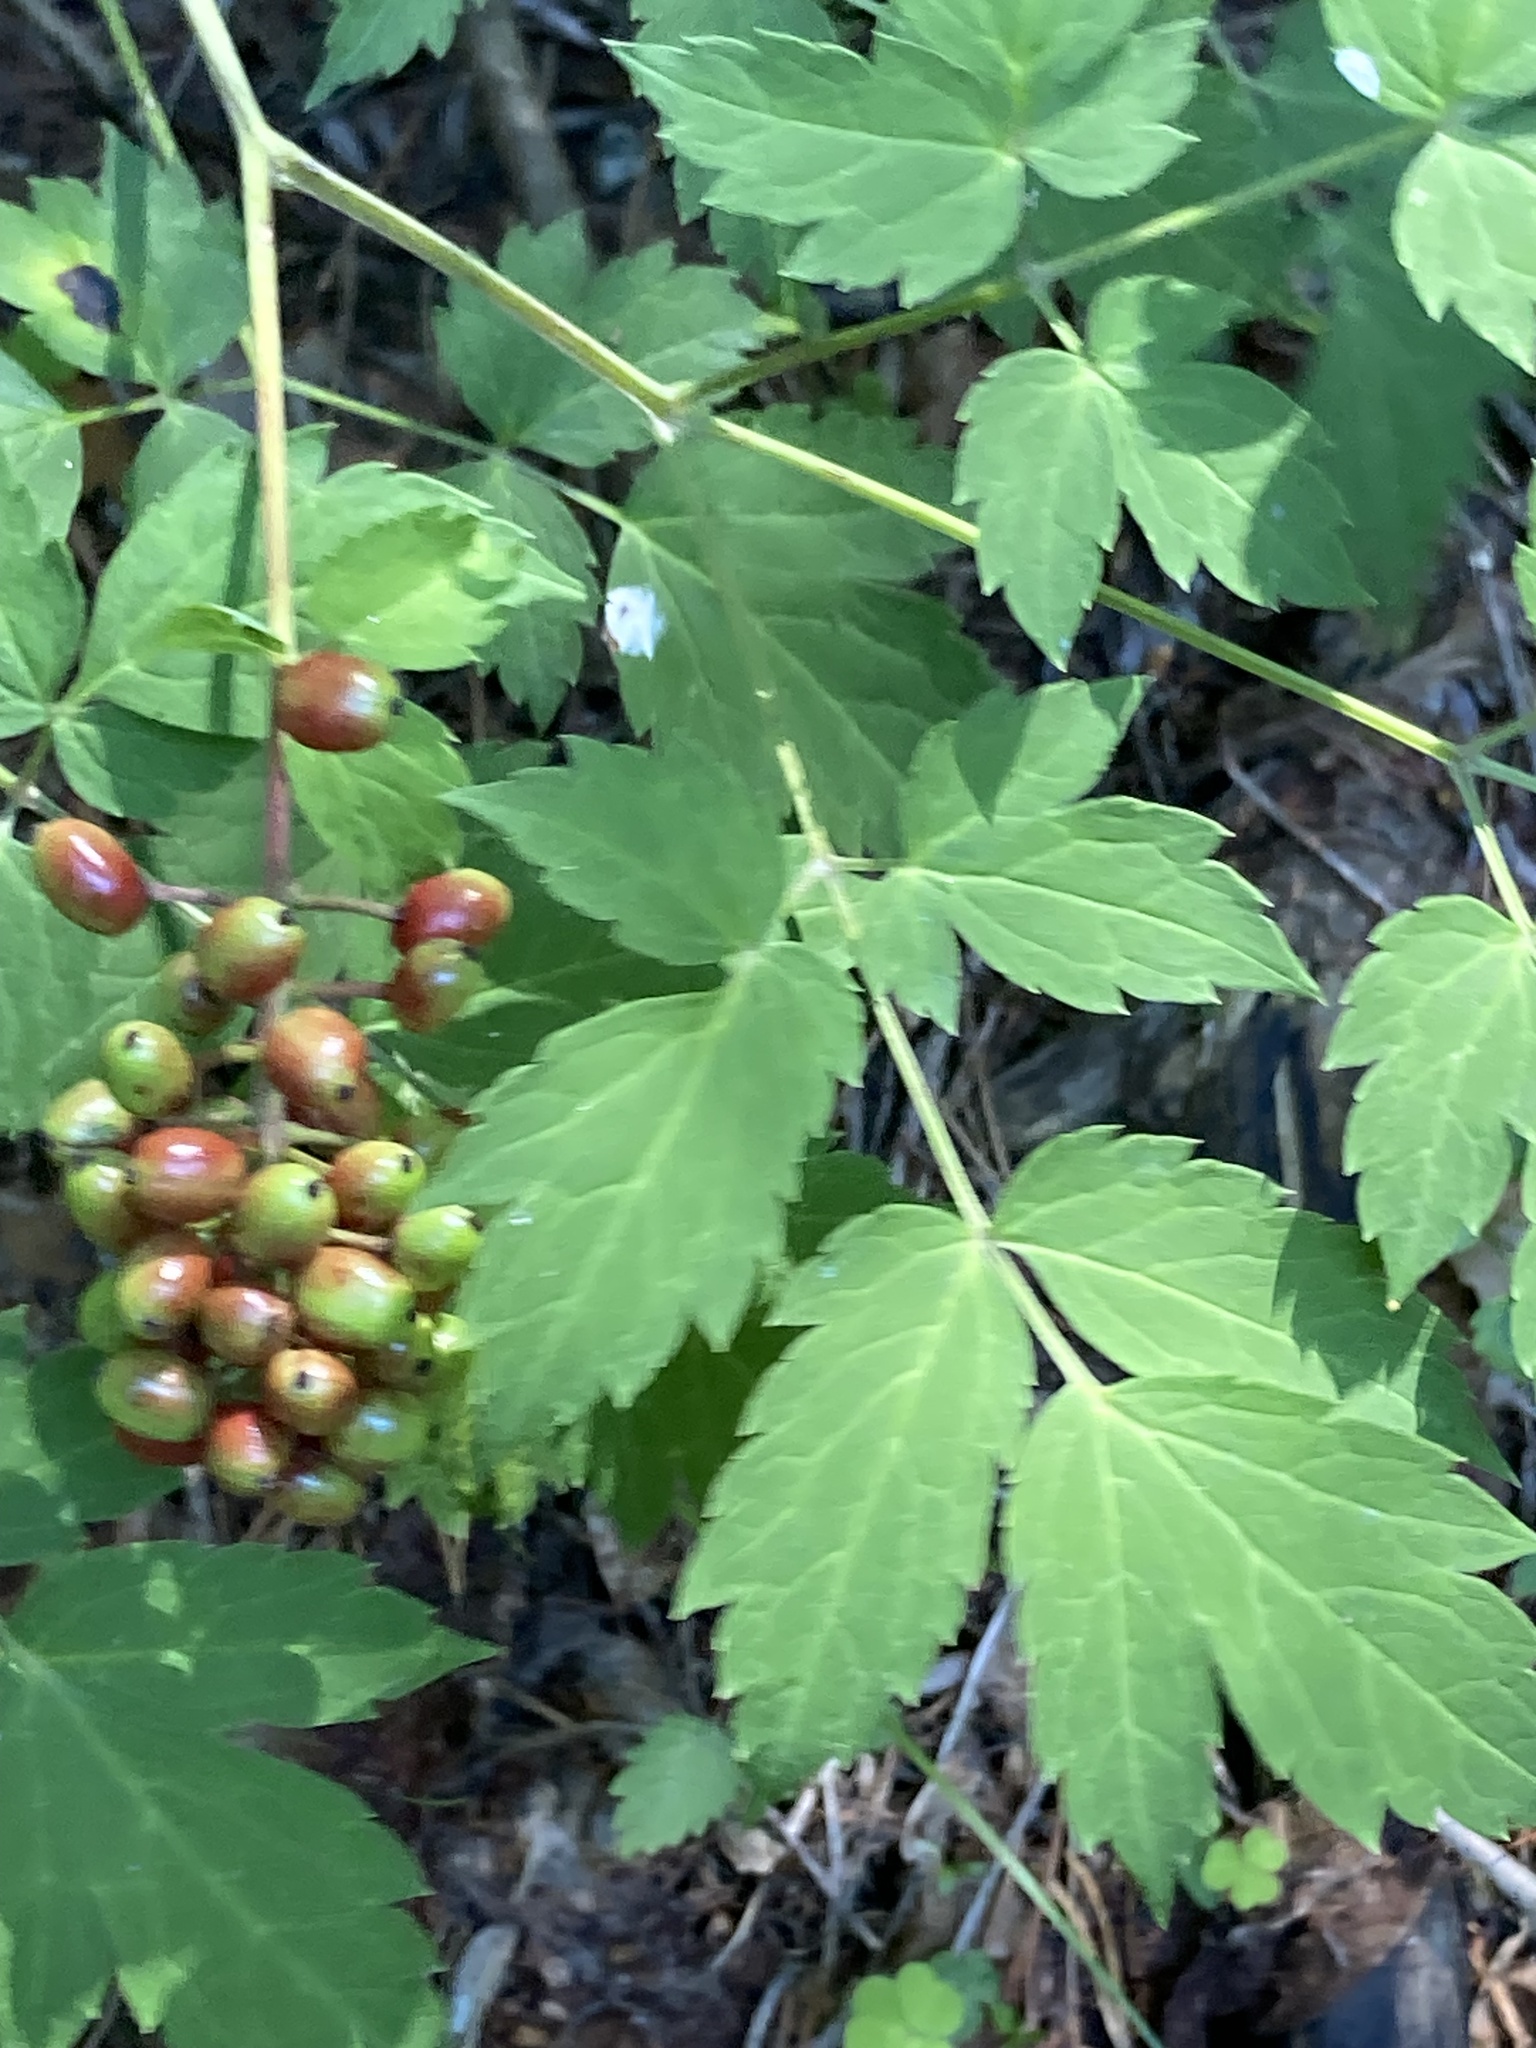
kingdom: Plantae
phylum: Tracheophyta
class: Magnoliopsida
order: Ranunculales
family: Ranunculaceae
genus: Actaea
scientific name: Actaea erythrocarpa
